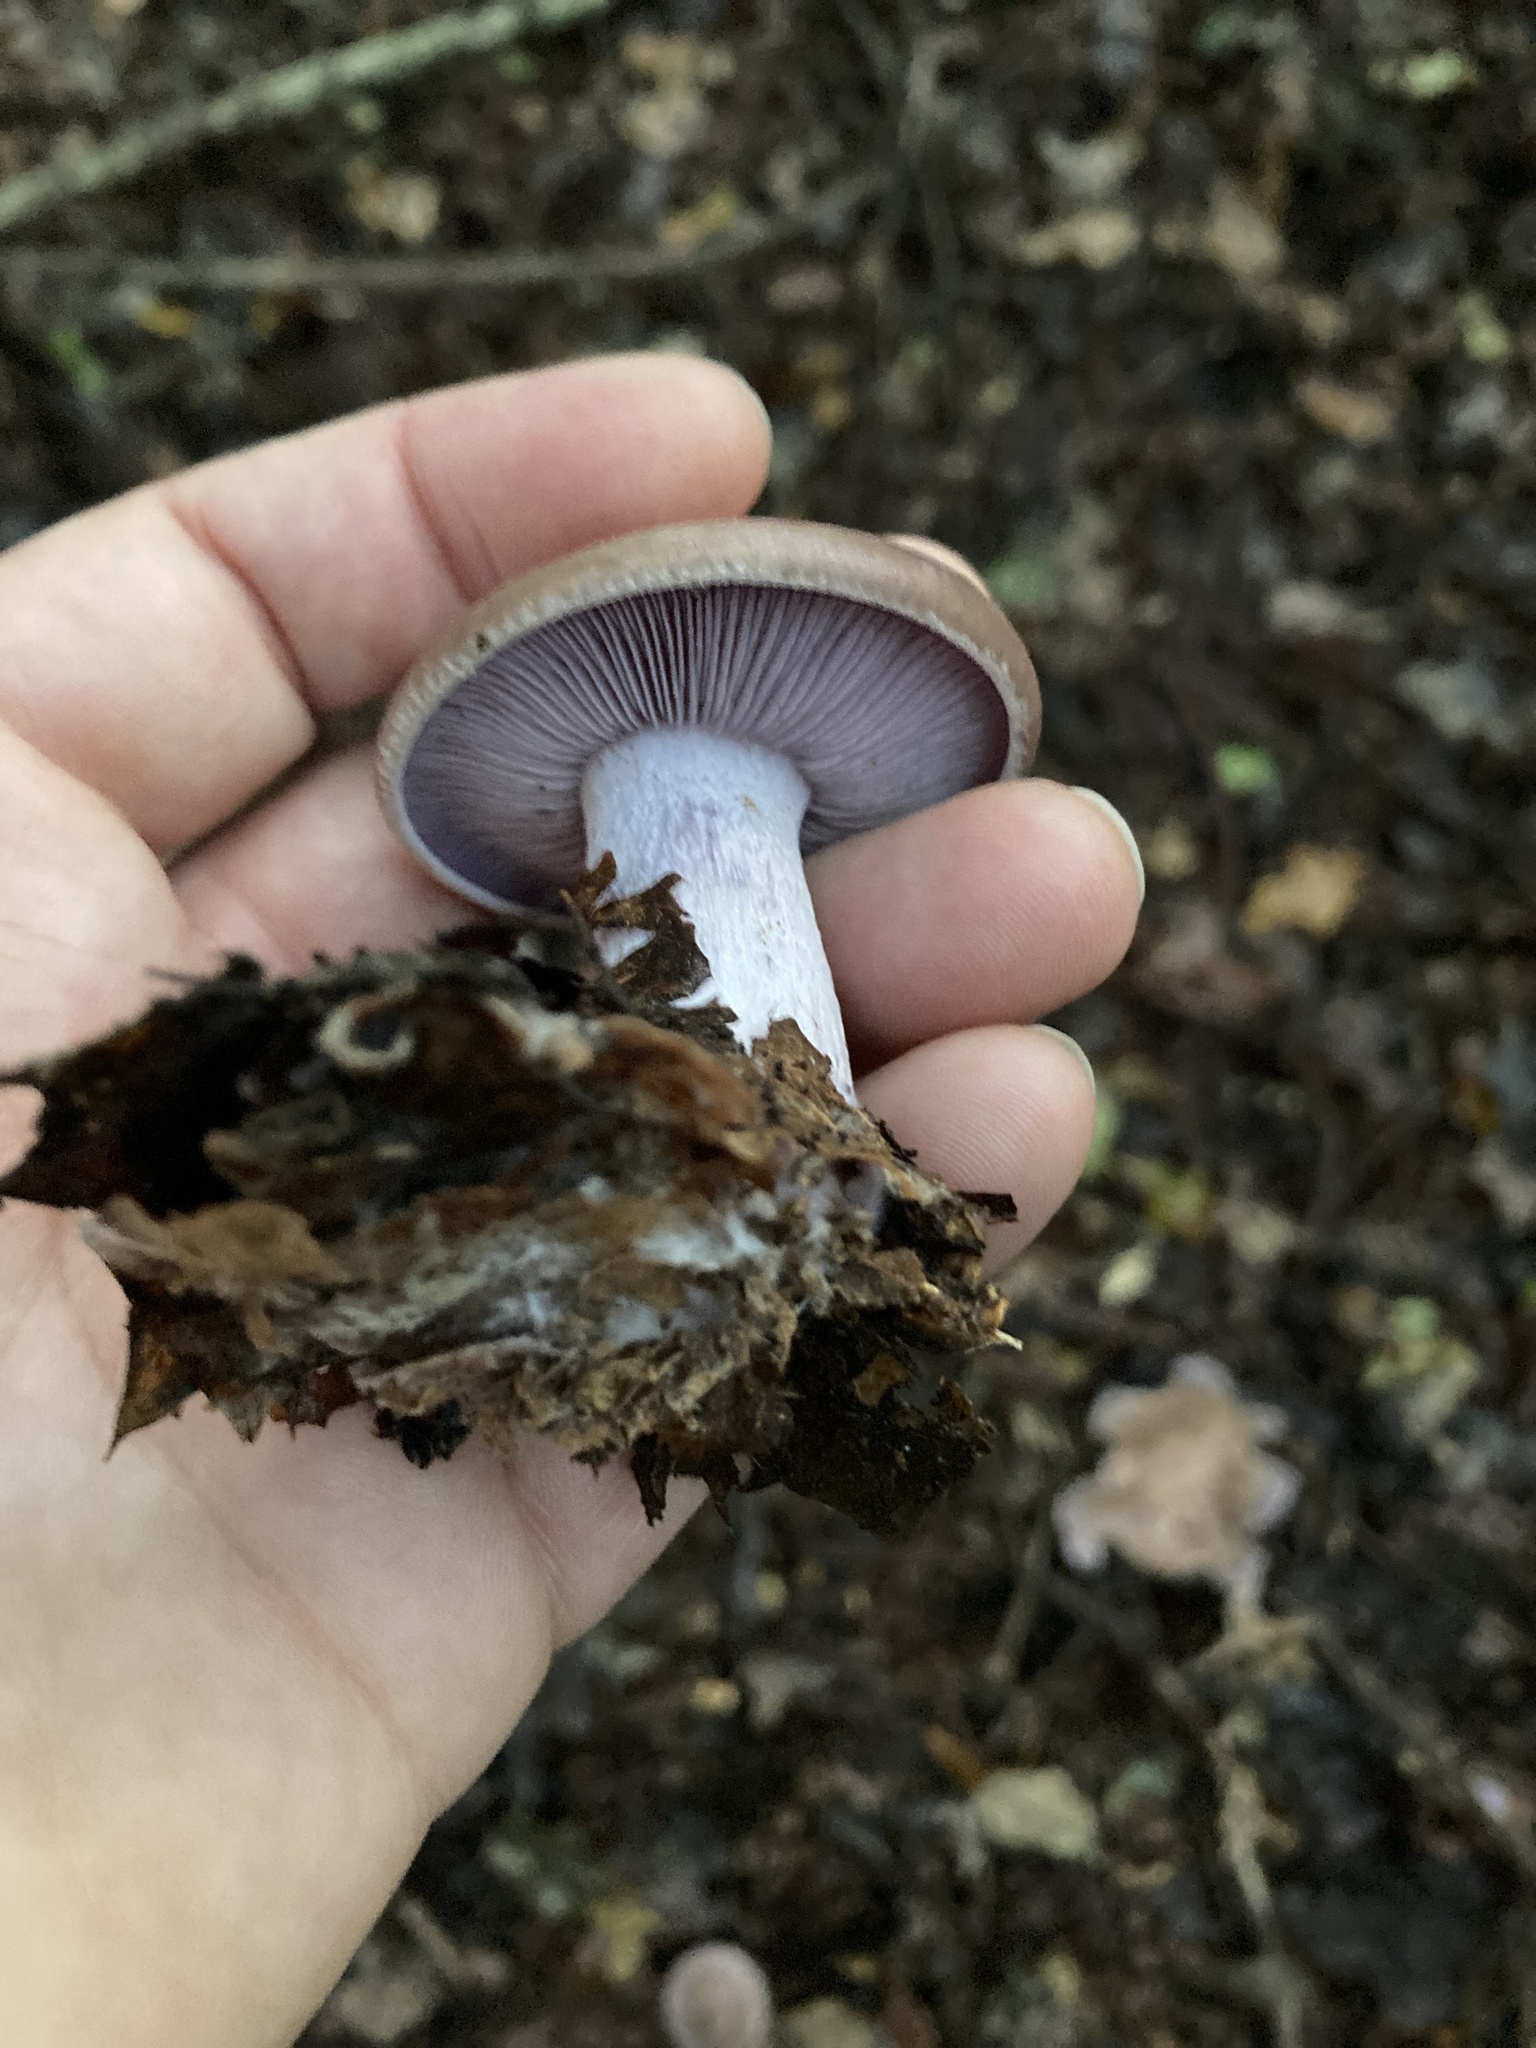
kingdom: Fungi
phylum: Basidiomycota
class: Agaricomycetes
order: Agaricales
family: Tricholomataceae
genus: Collybia
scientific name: Collybia
